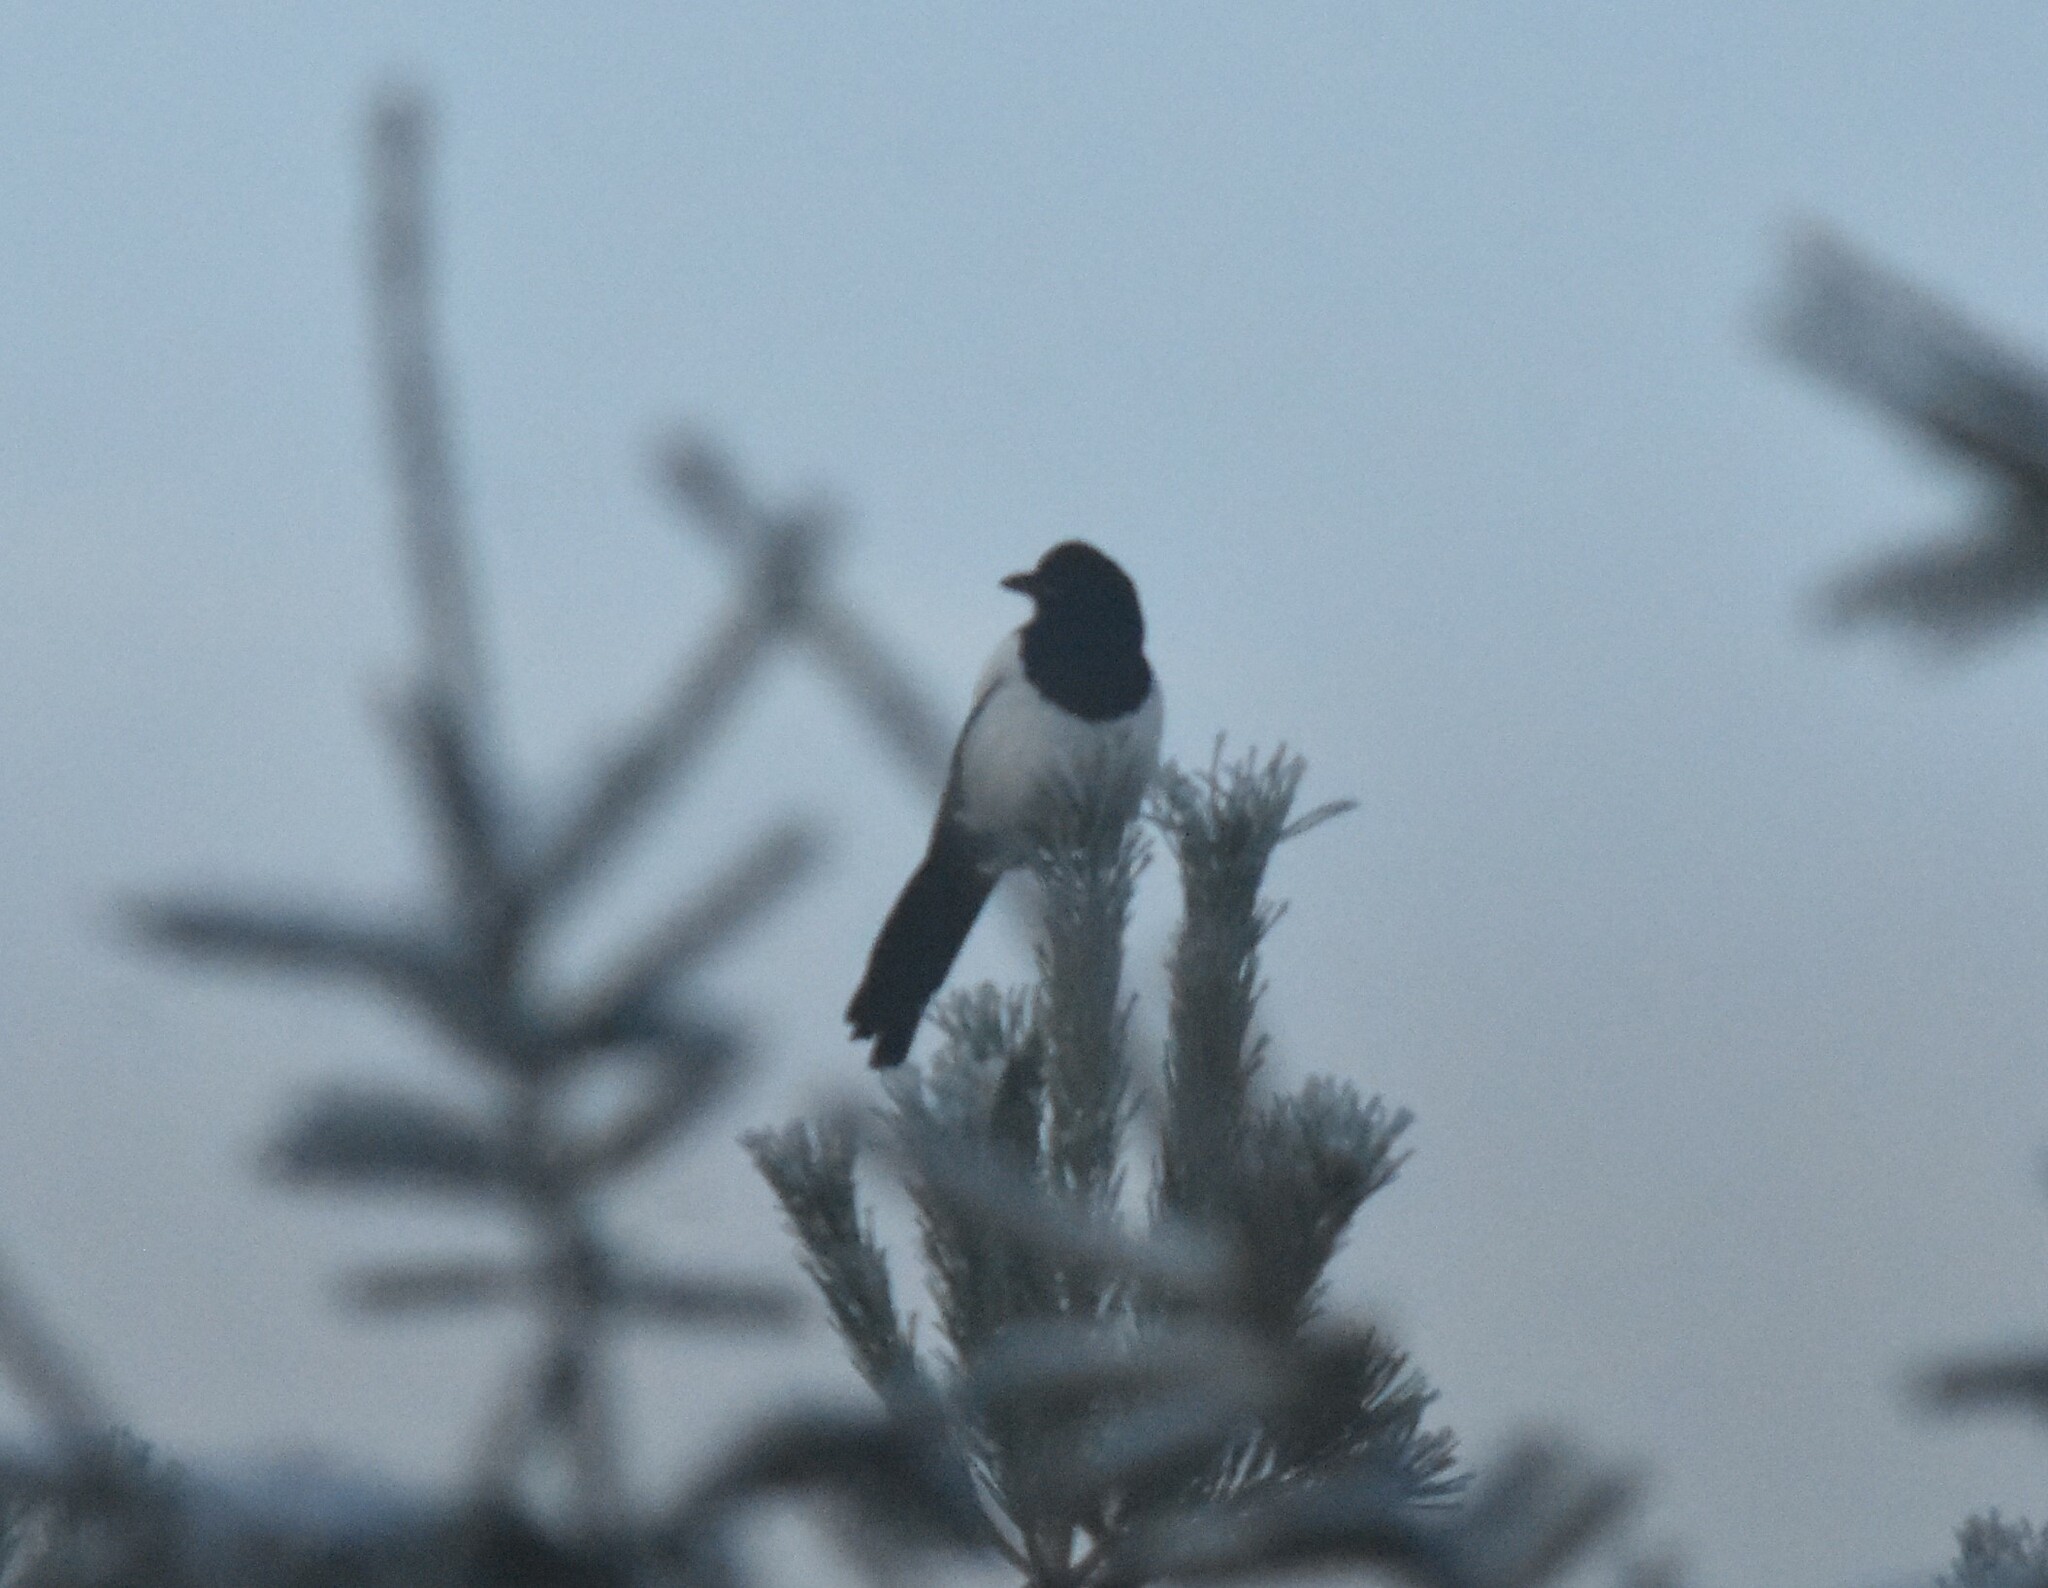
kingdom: Animalia
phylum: Chordata
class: Aves
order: Passeriformes
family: Corvidae
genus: Pica
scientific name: Pica pica
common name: Eurasian magpie
